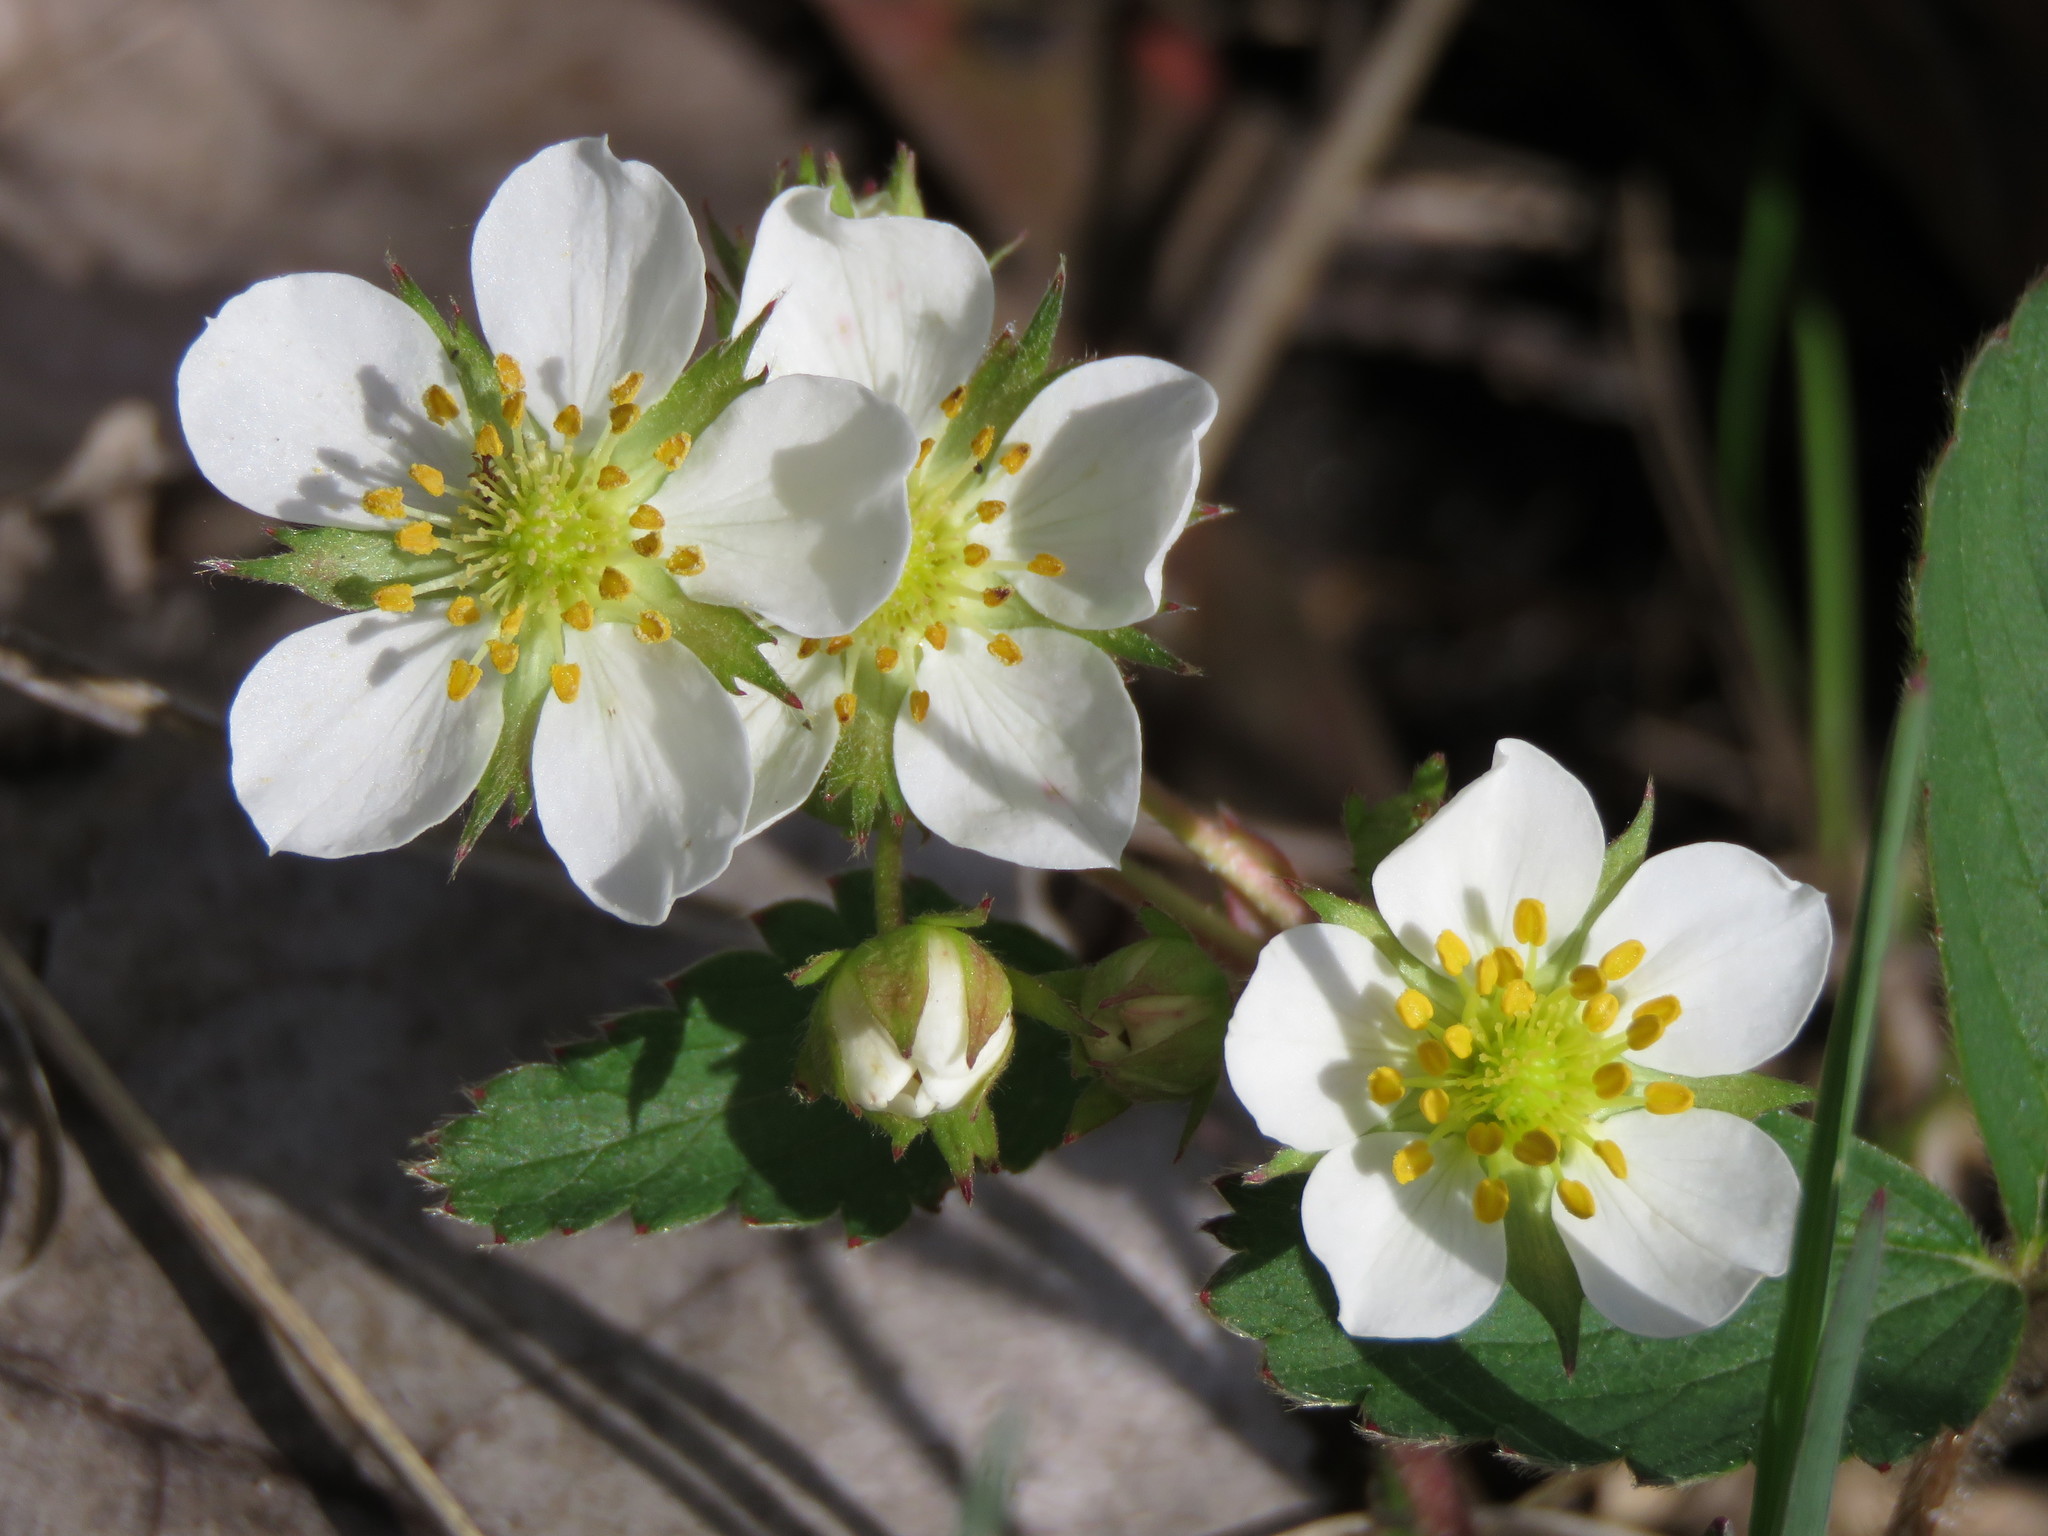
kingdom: Plantae
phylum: Tracheophyta
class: Magnoliopsida
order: Rosales
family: Rosaceae
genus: Fragaria
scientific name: Fragaria virginiana
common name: Thickleaved wild strawberry
